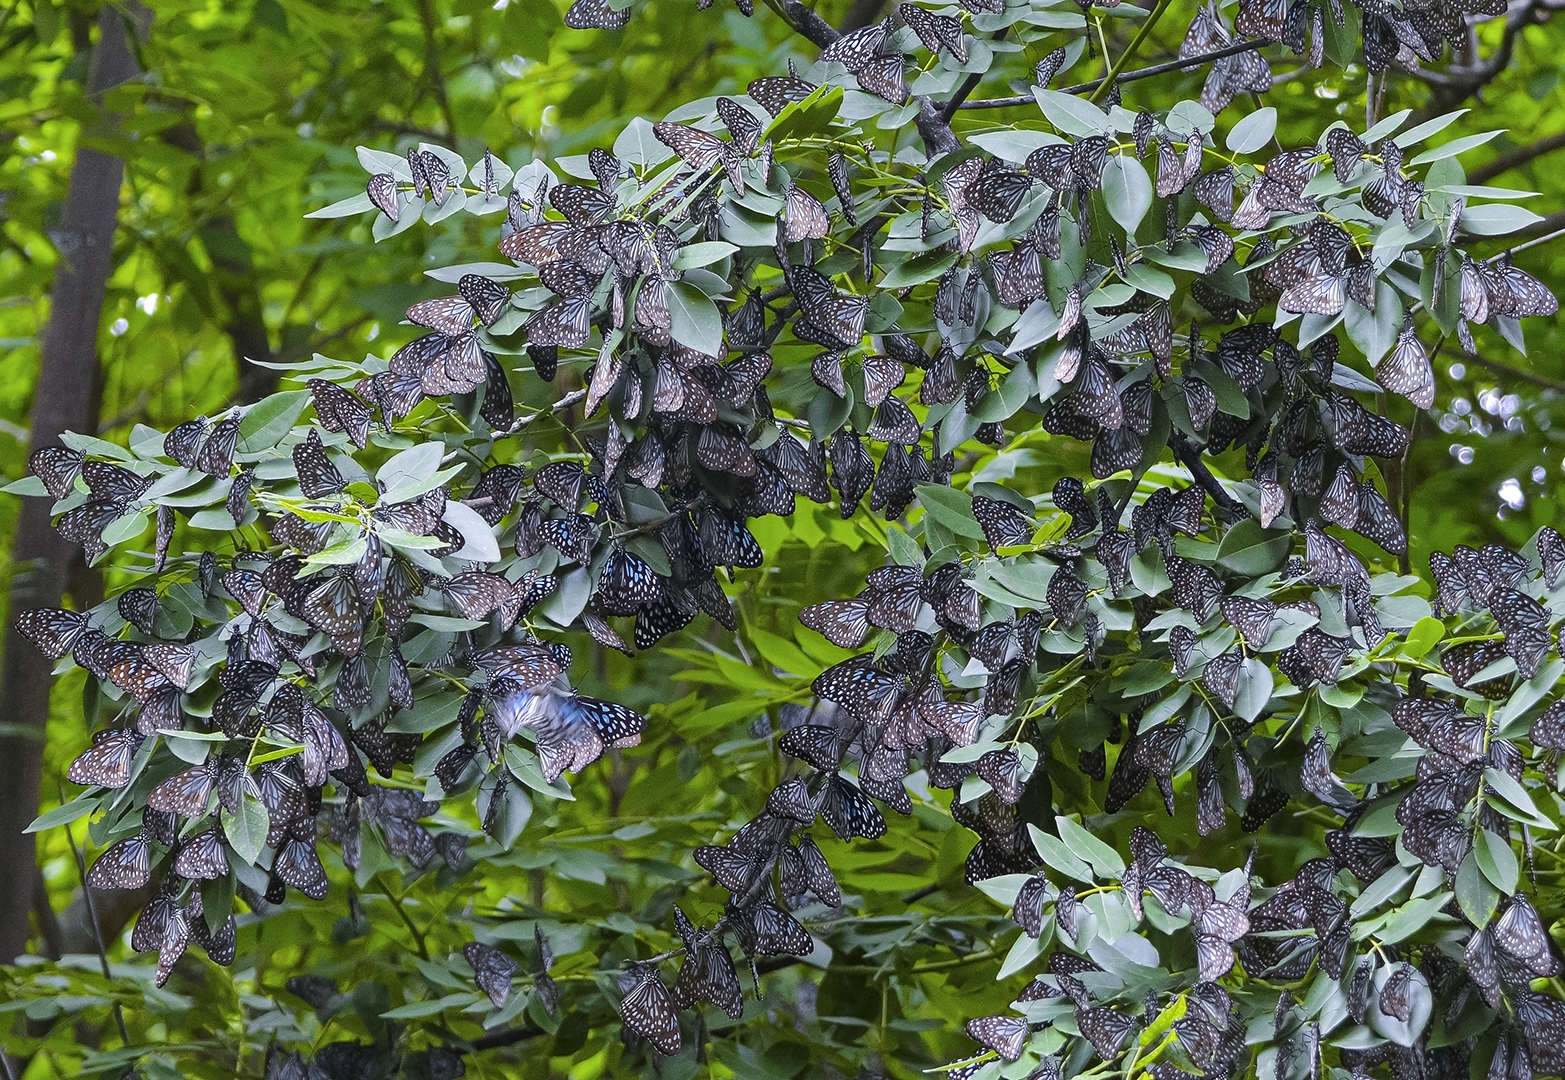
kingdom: Animalia
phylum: Arthropoda
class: Insecta
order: Lepidoptera
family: Nymphalidae
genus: Tirumala
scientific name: Tirumala septentrionis
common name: Dark blue tiger butterfly
